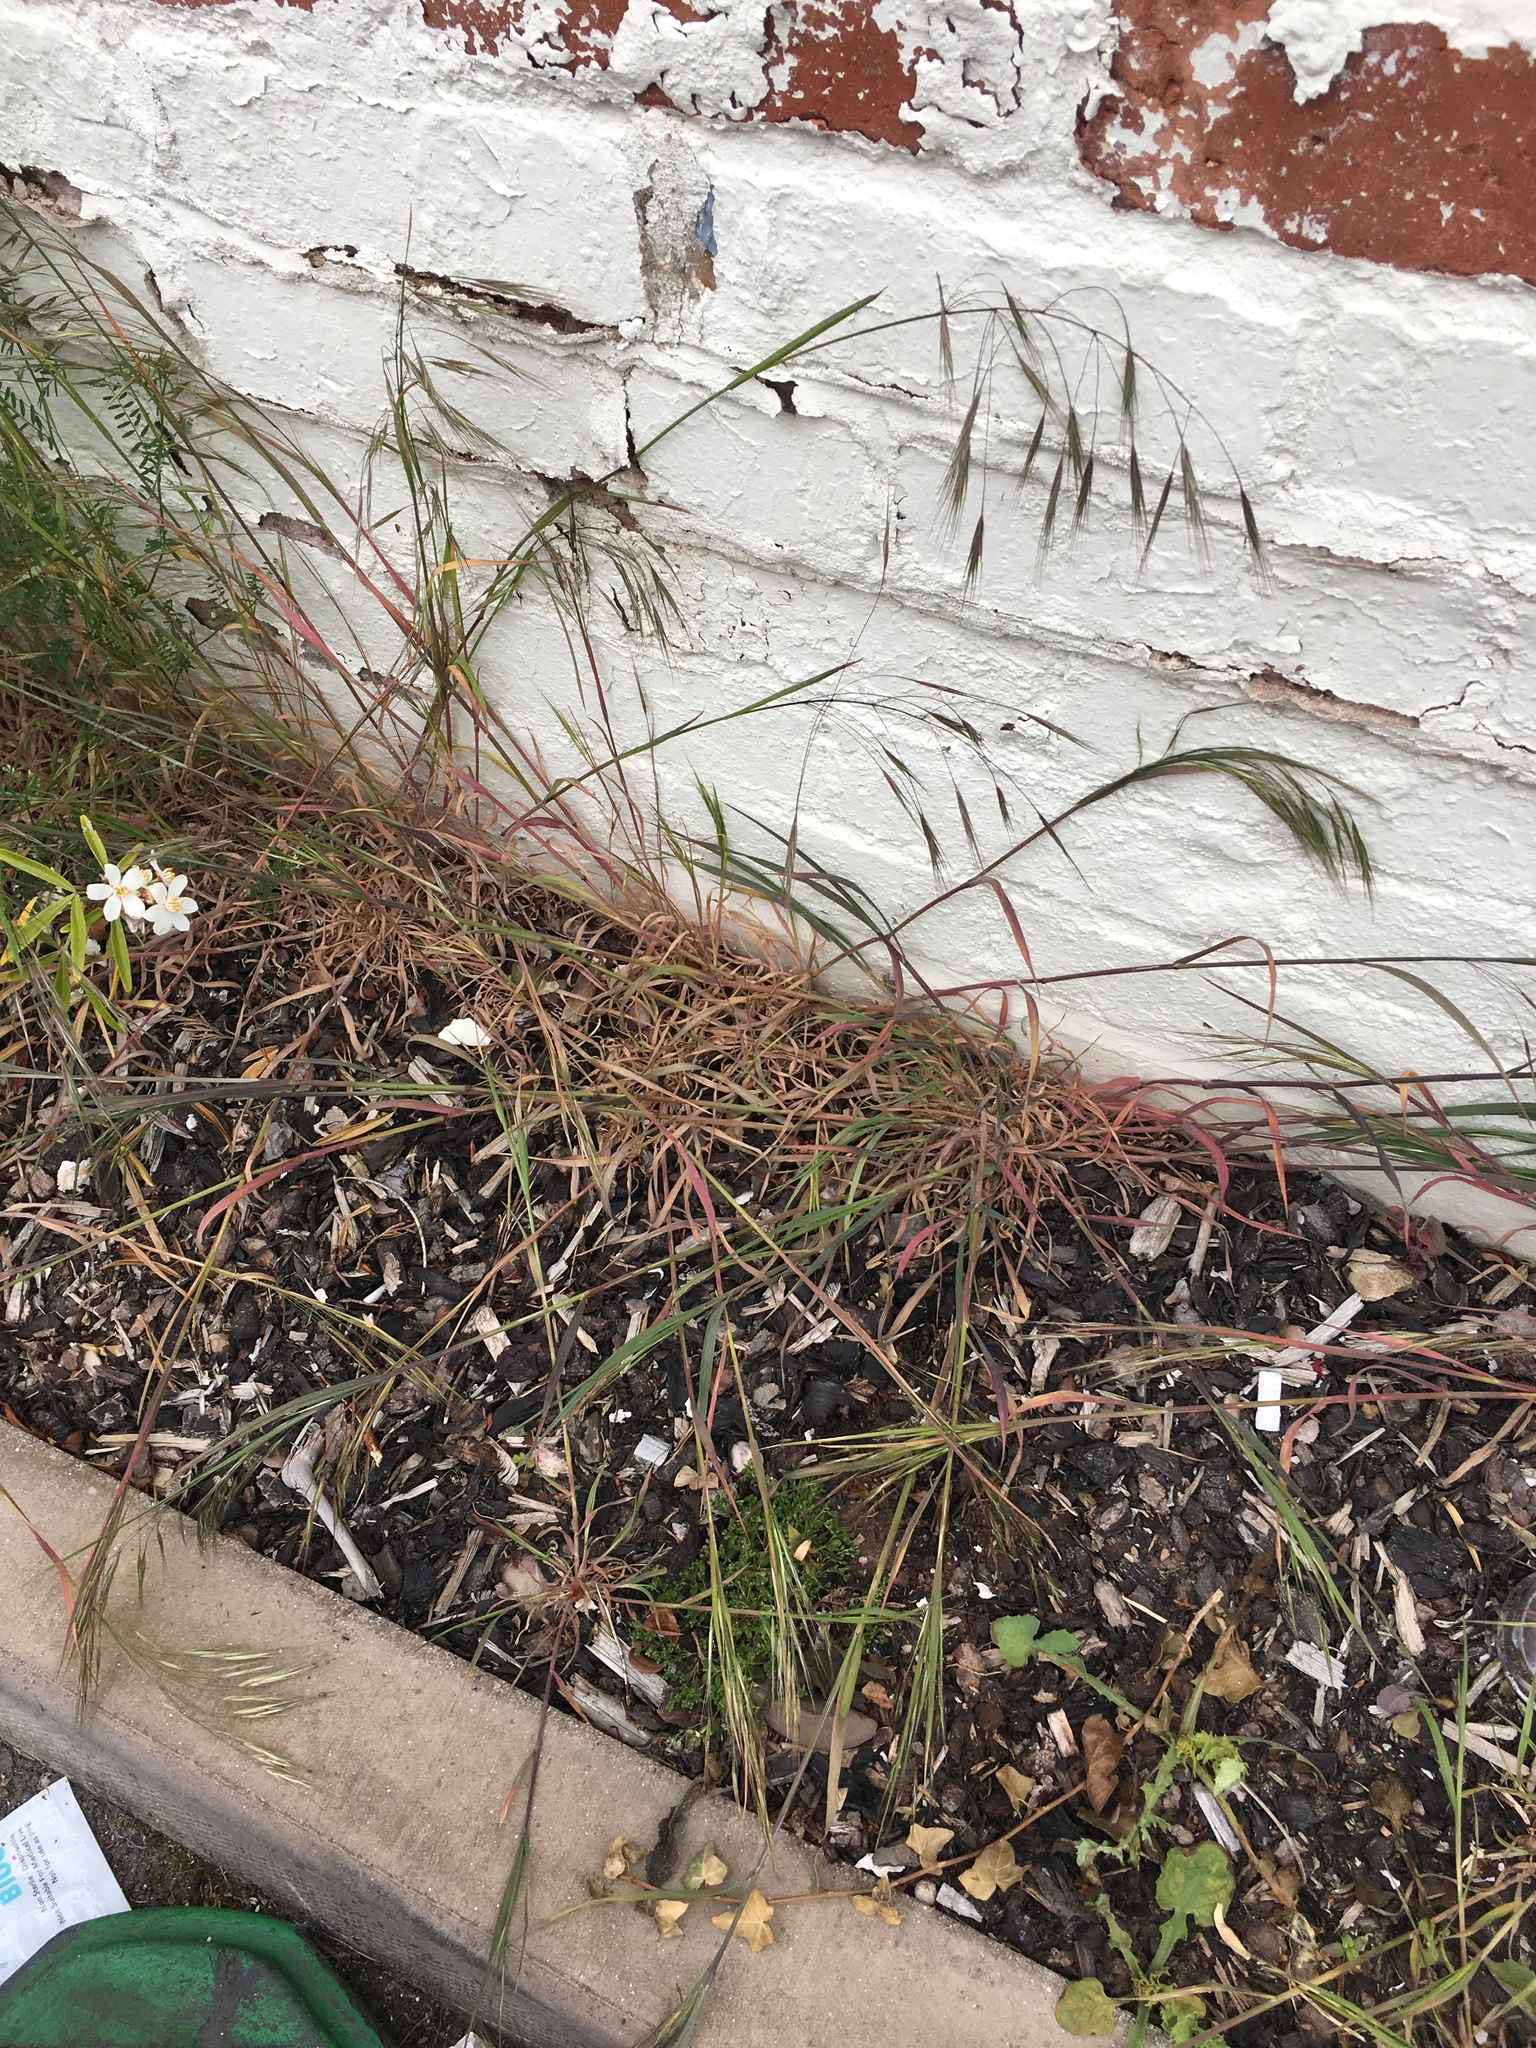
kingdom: Plantae
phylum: Tracheophyta
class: Liliopsida
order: Poales
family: Poaceae
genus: Bromus
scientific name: Bromus sterilis
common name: Poverty brome
